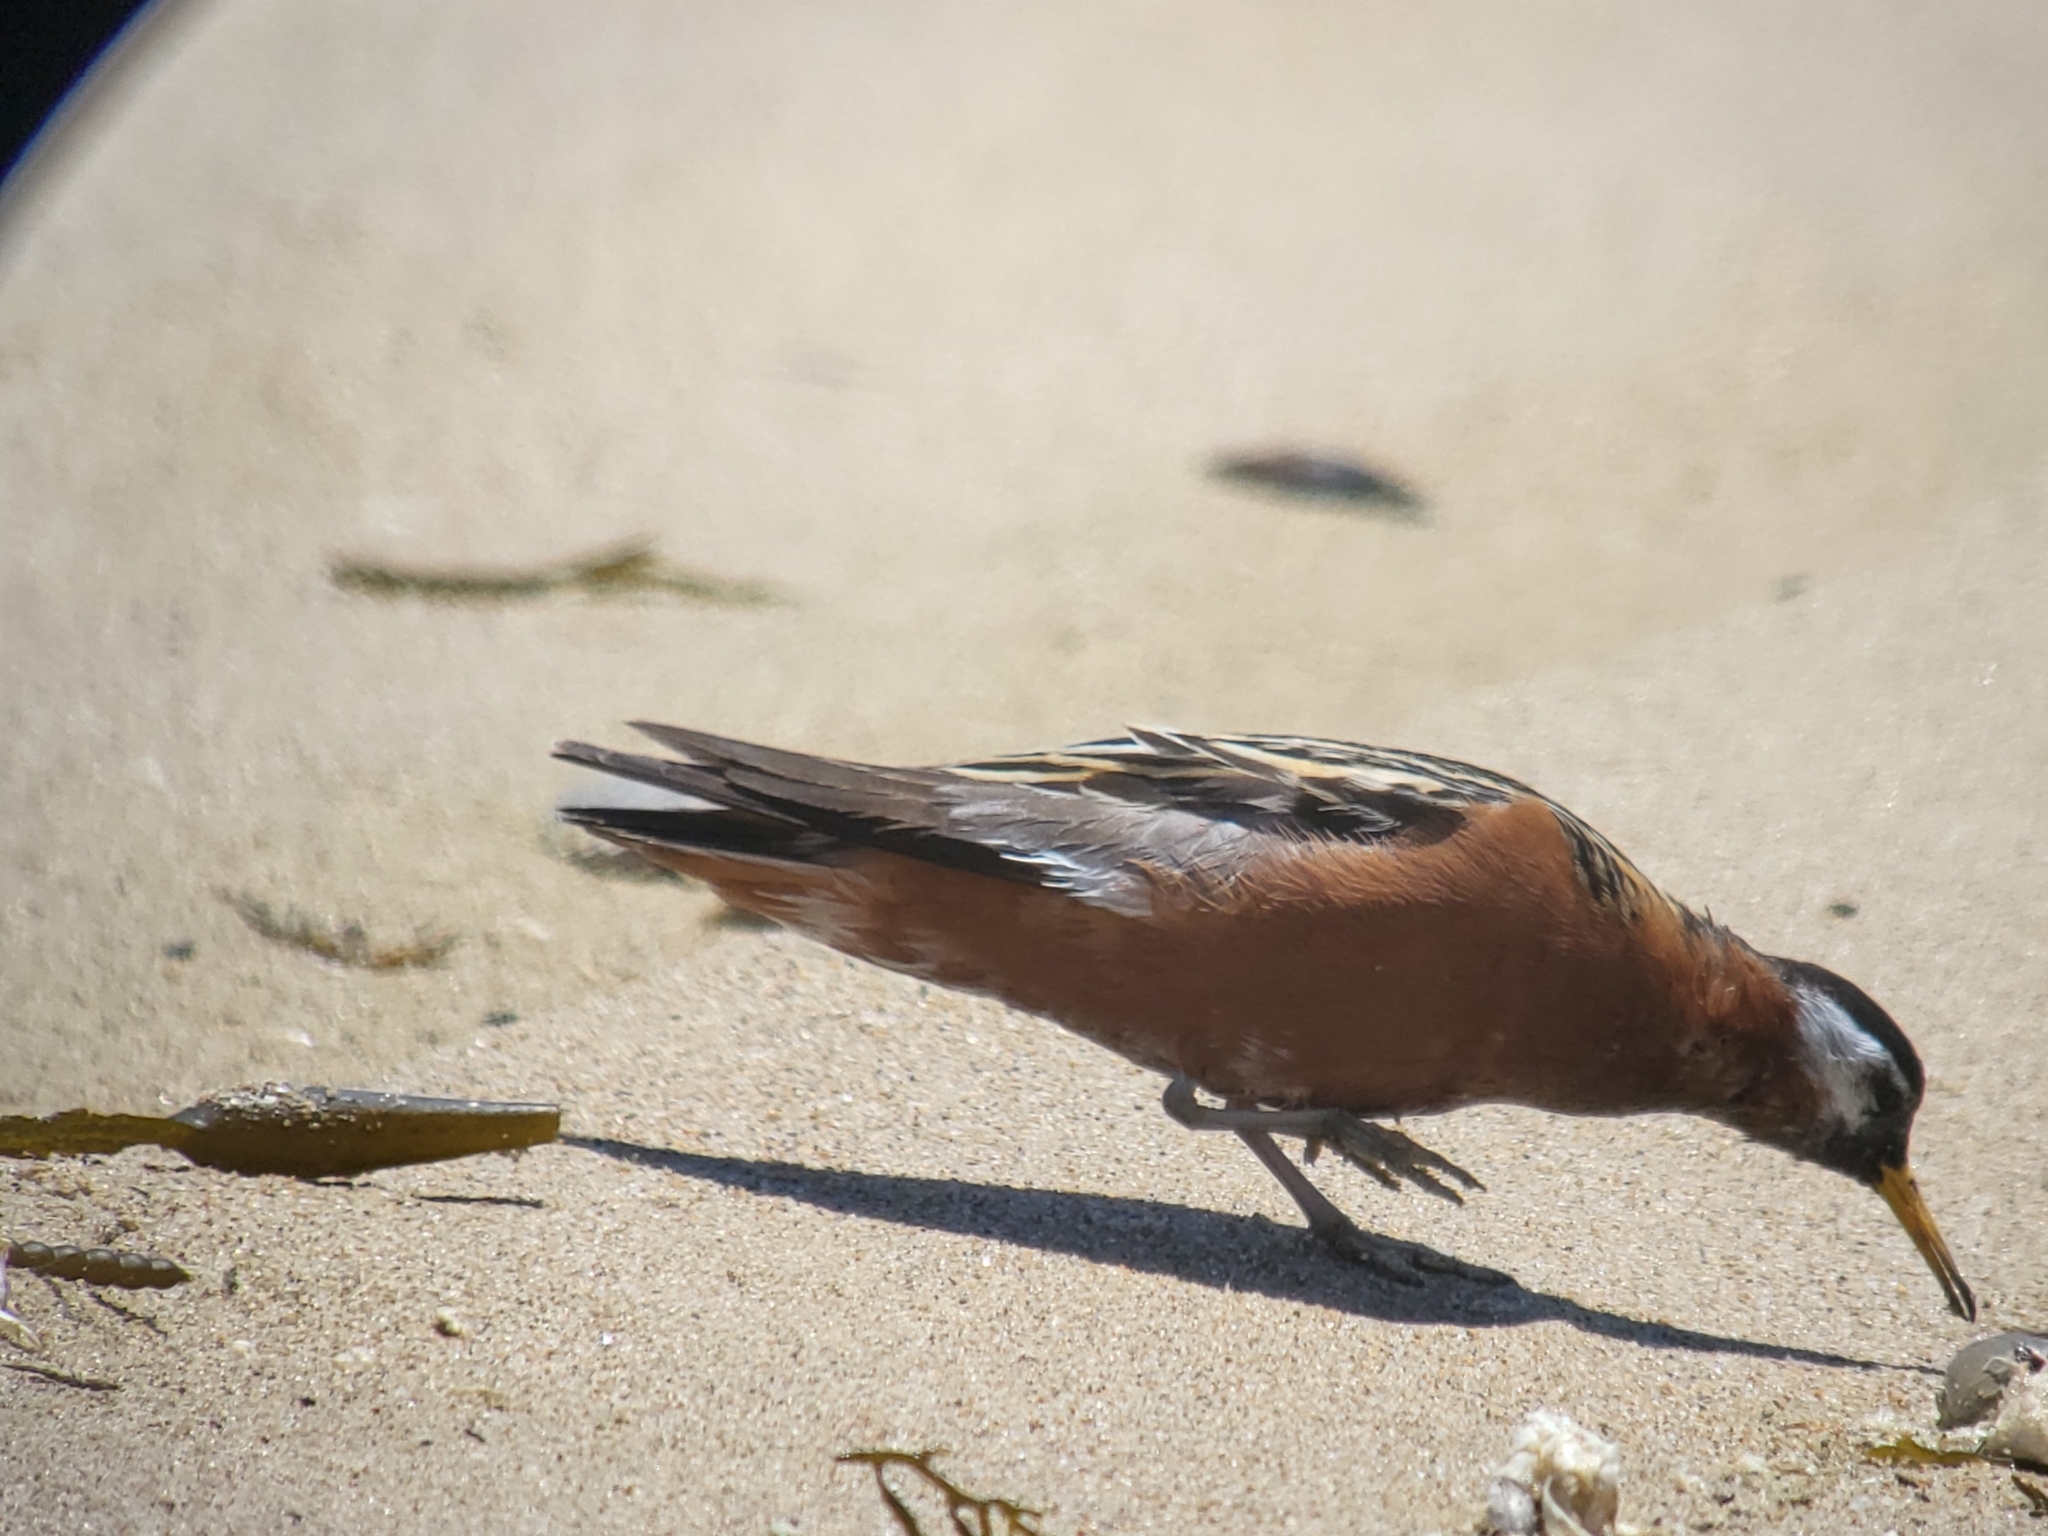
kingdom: Animalia
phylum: Chordata
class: Aves
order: Charadriiformes
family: Scolopacidae
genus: Phalaropus
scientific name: Phalaropus fulicarius
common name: Red phalarope
